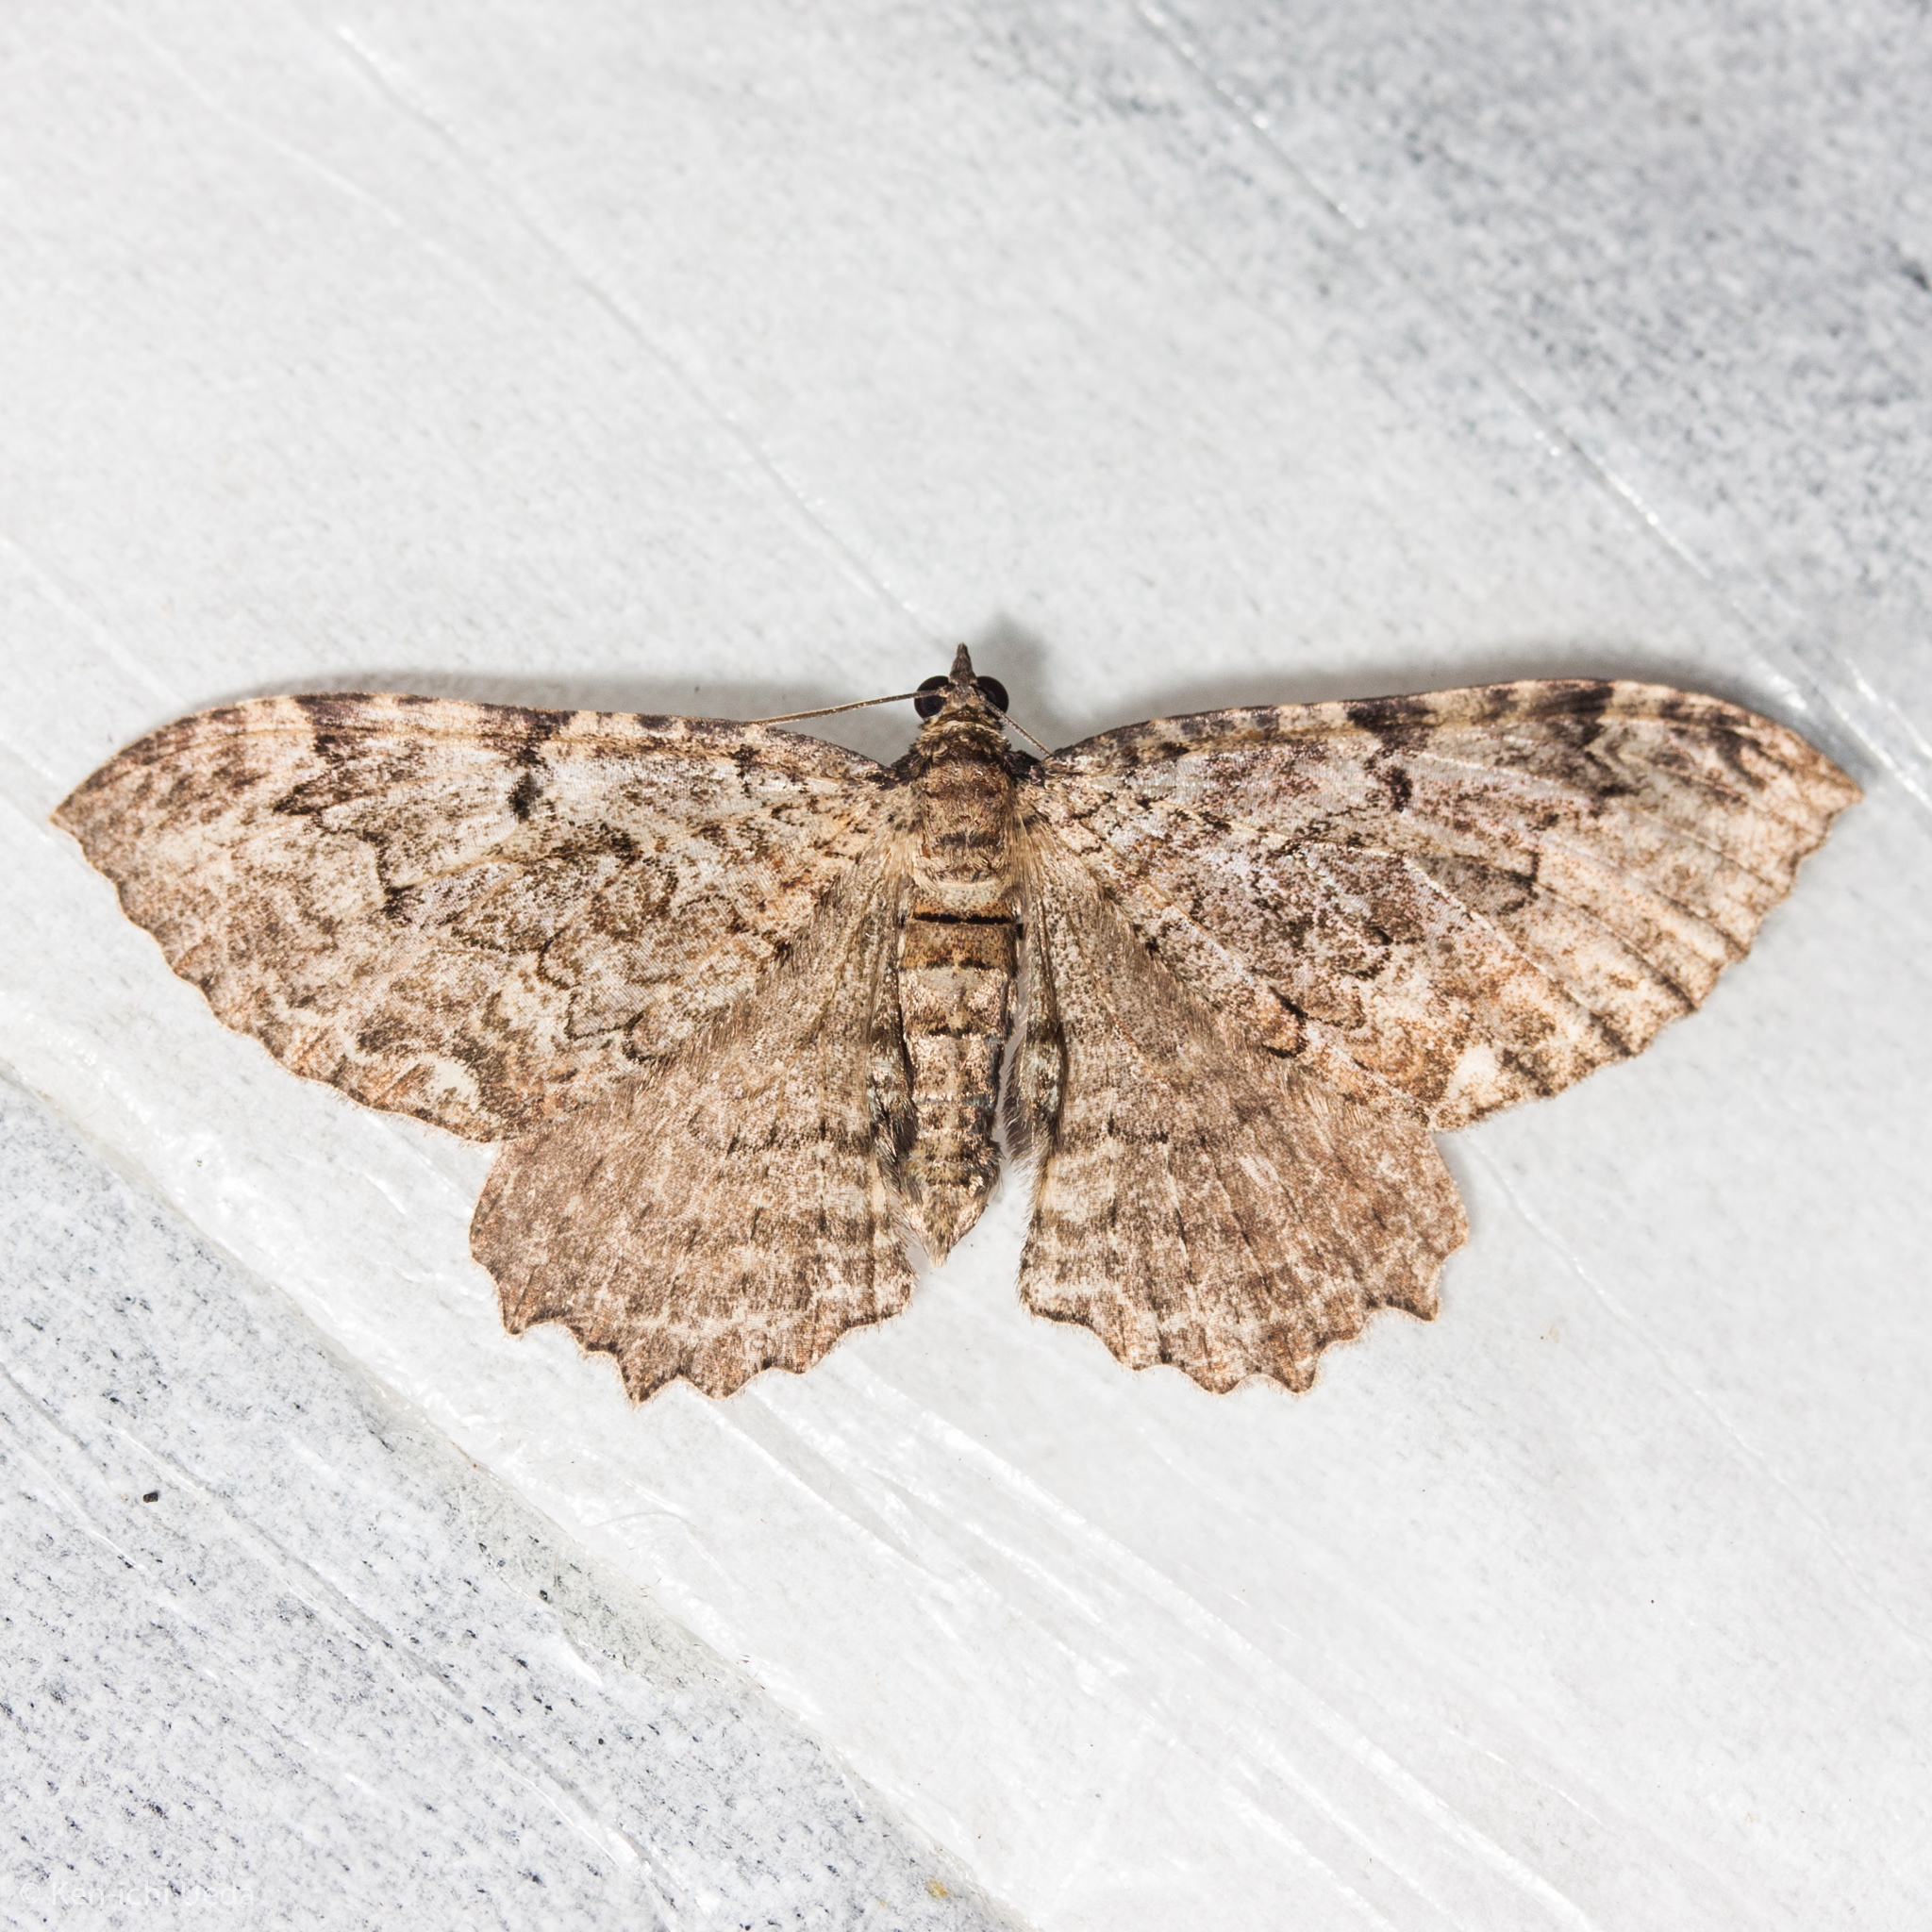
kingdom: Animalia
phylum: Arthropoda
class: Insecta
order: Lepidoptera
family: Geometridae
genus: Rheumaptera
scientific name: Rheumaptera
